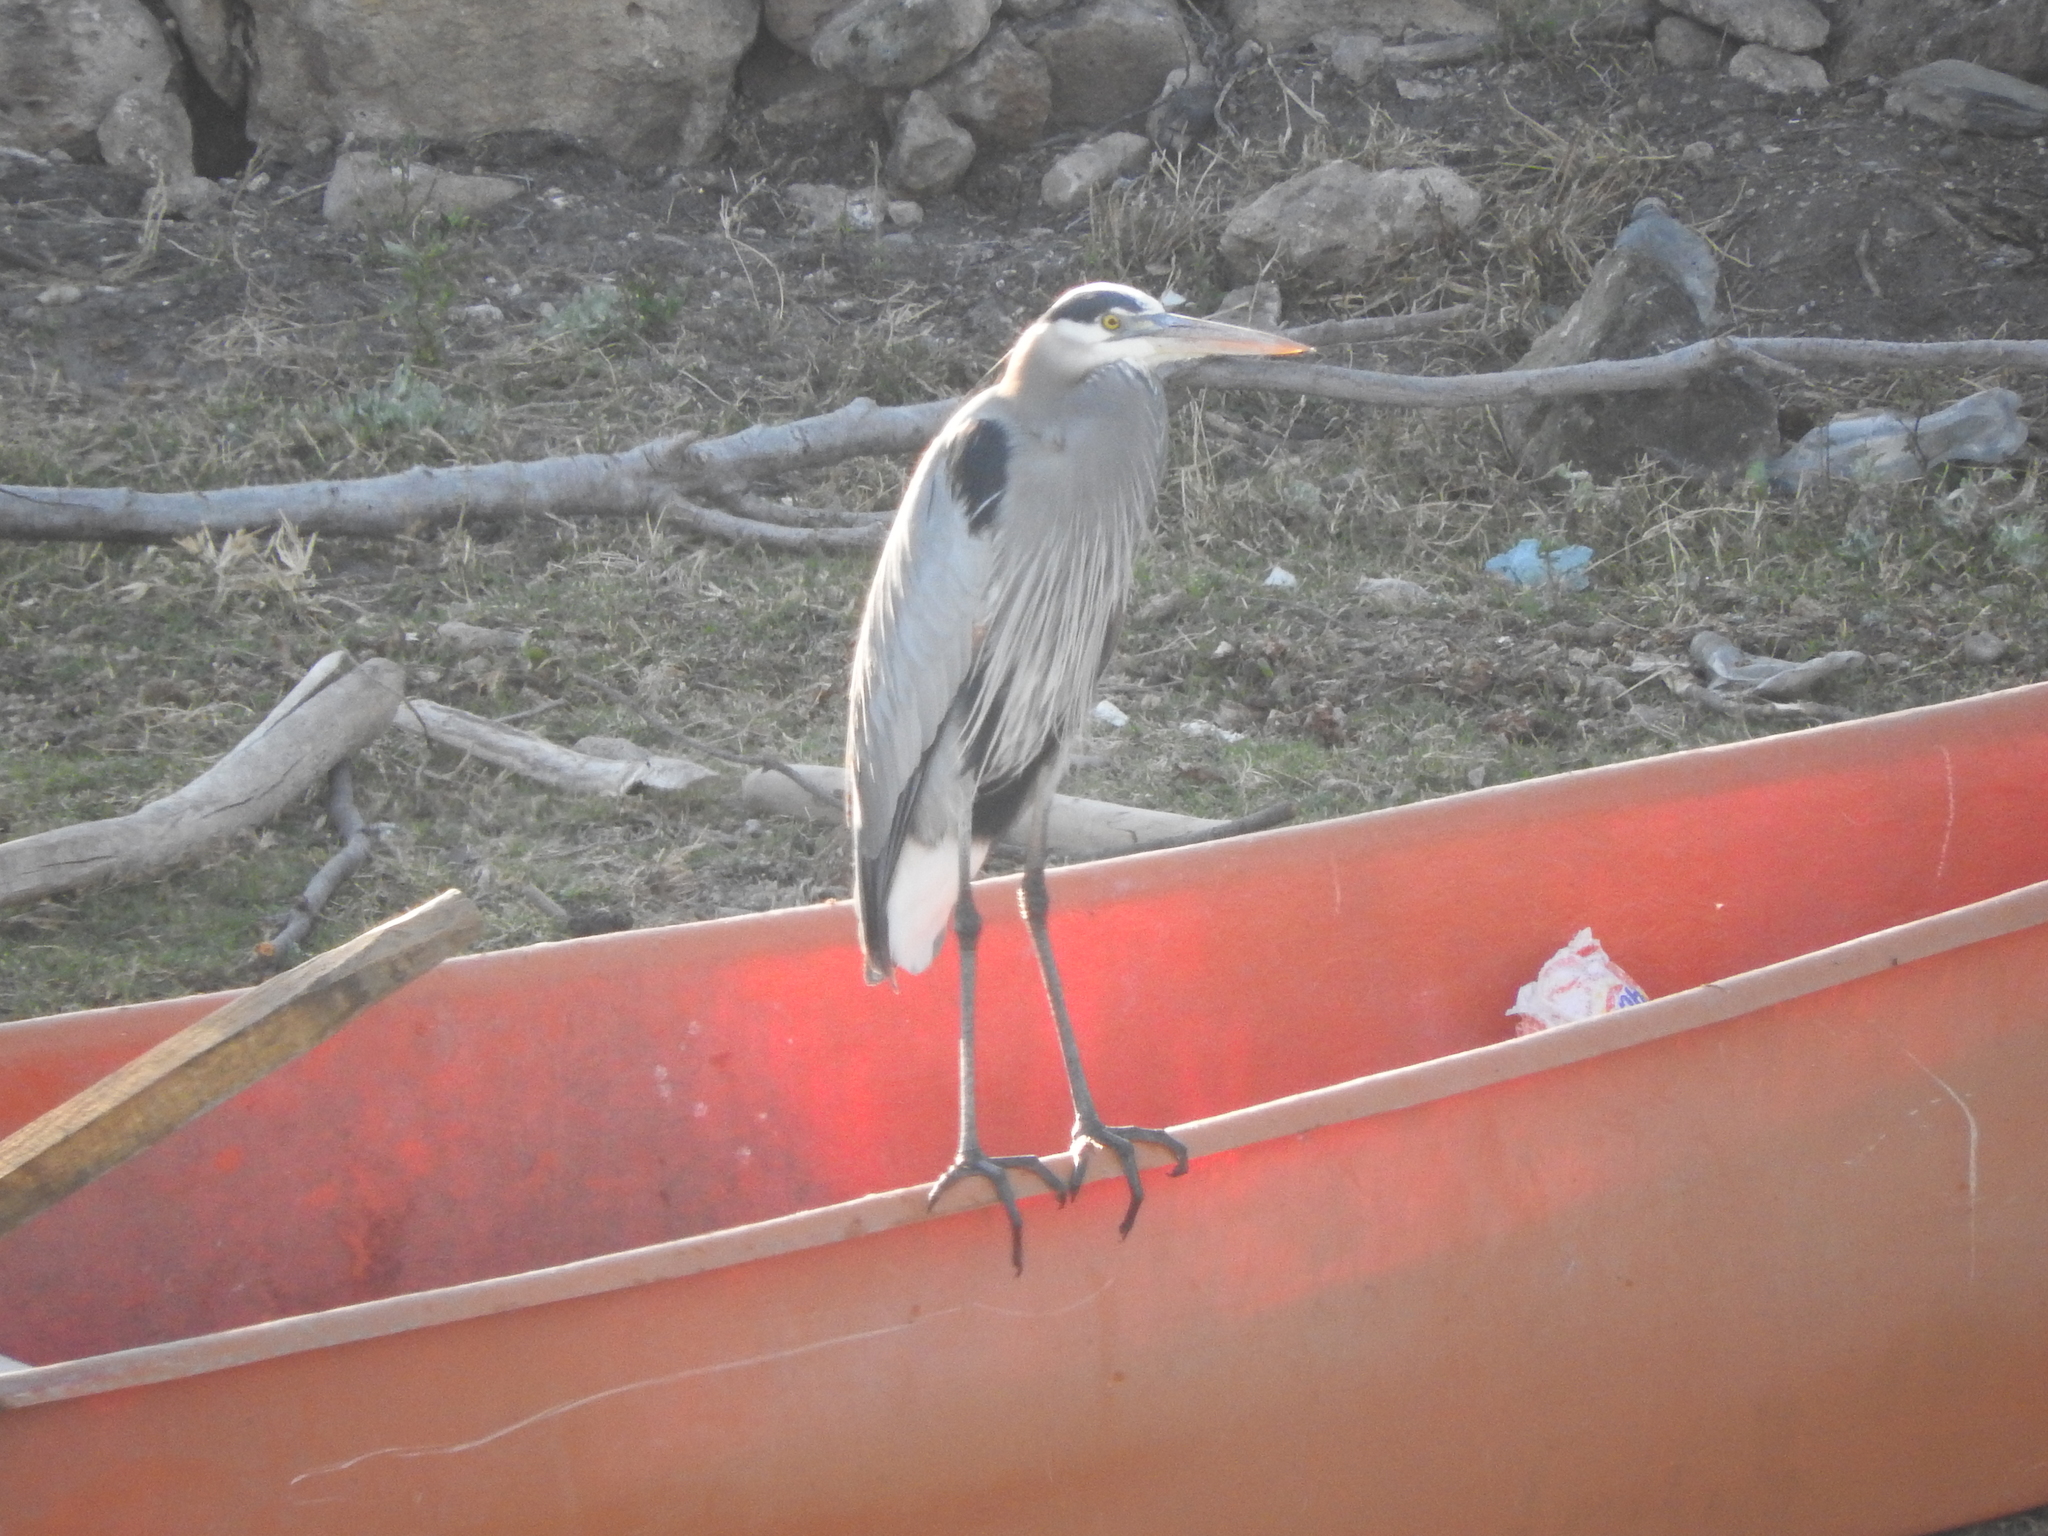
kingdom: Animalia
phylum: Chordata
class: Aves
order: Pelecaniformes
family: Ardeidae
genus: Ardea
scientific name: Ardea herodias
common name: Great blue heron
